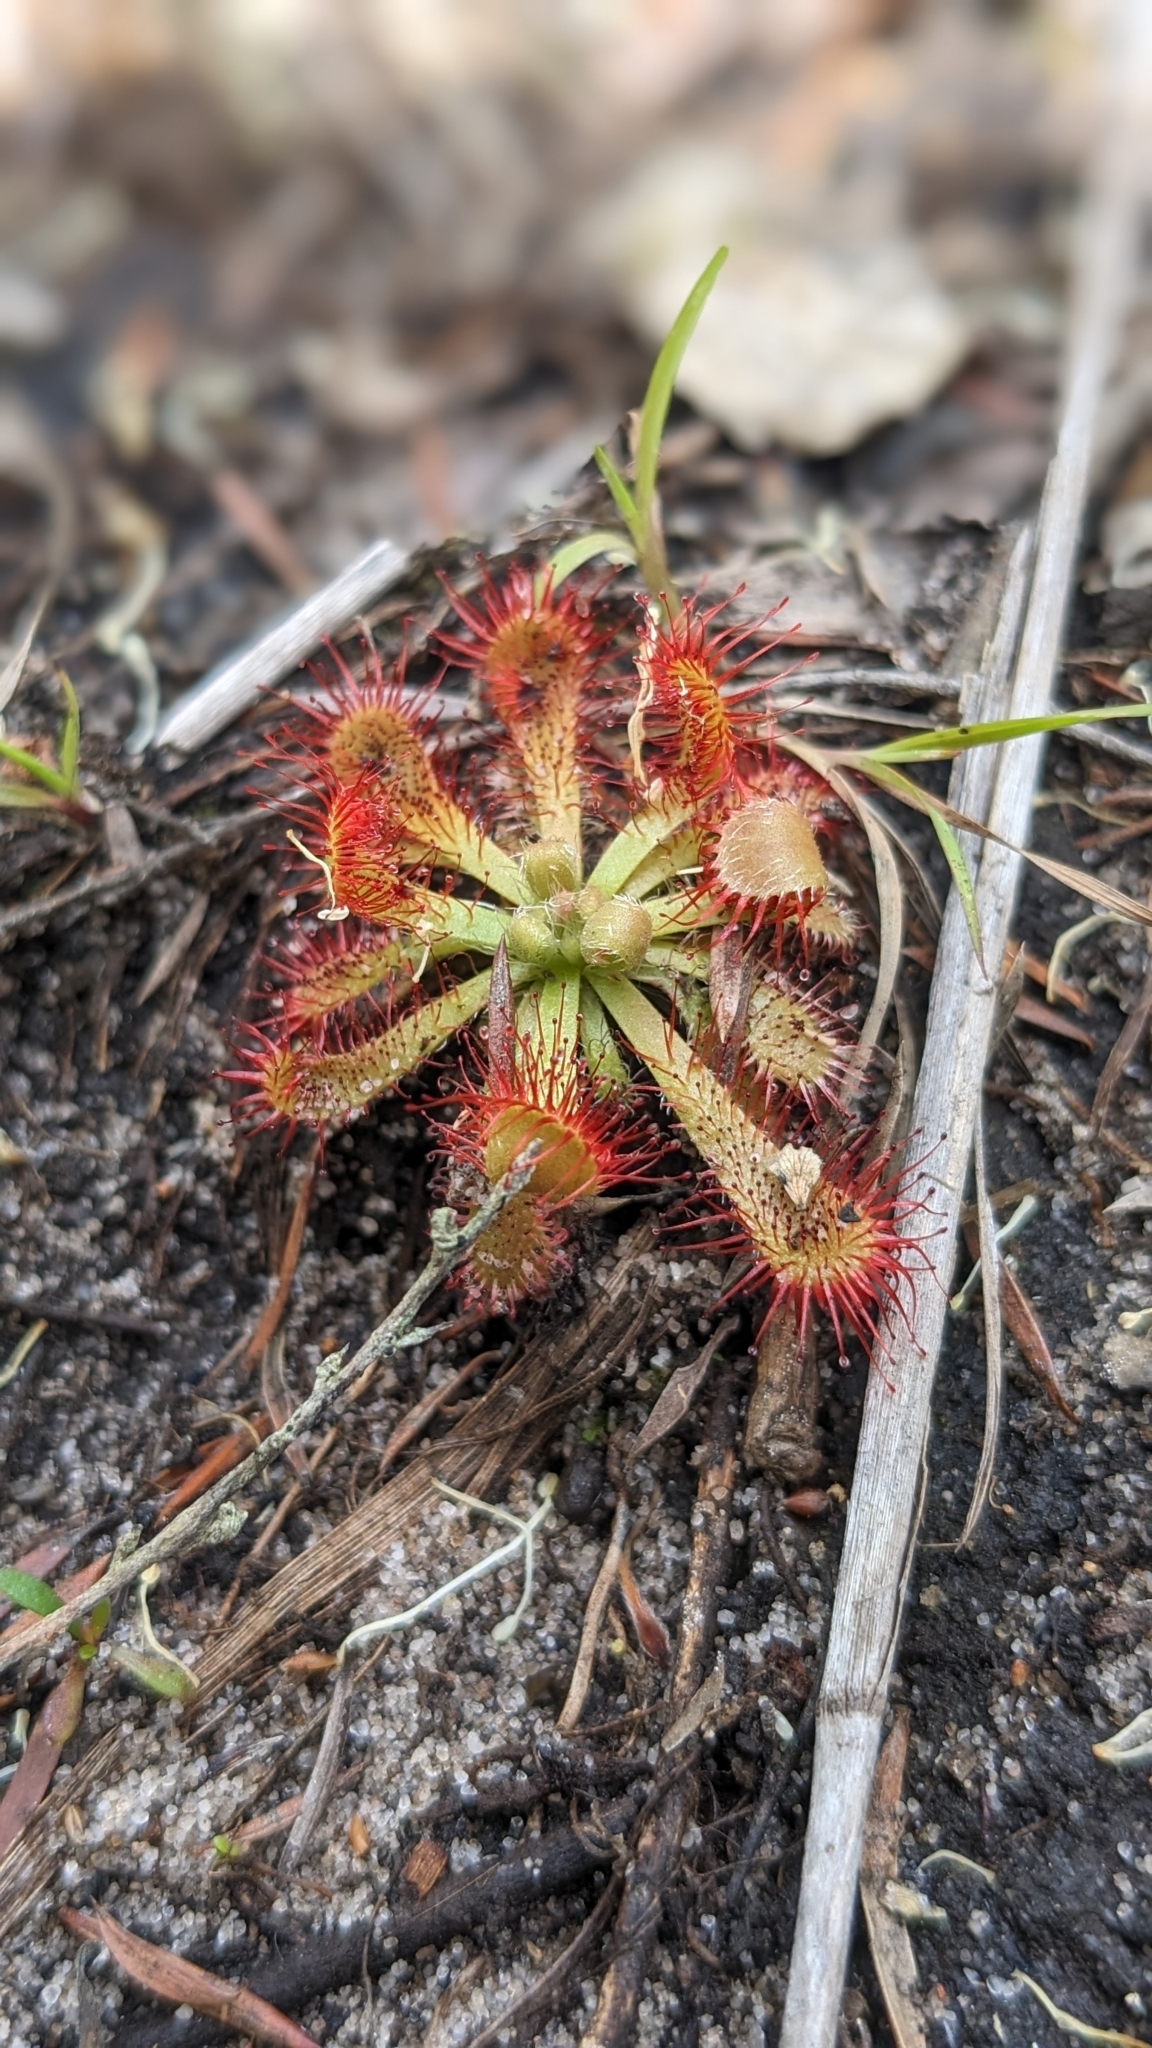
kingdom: Plantae
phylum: Tracheophyta
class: Magnoliopsida
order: Caryophyllales
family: Droseraceae
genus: Drosera
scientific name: Drosera spatulata
